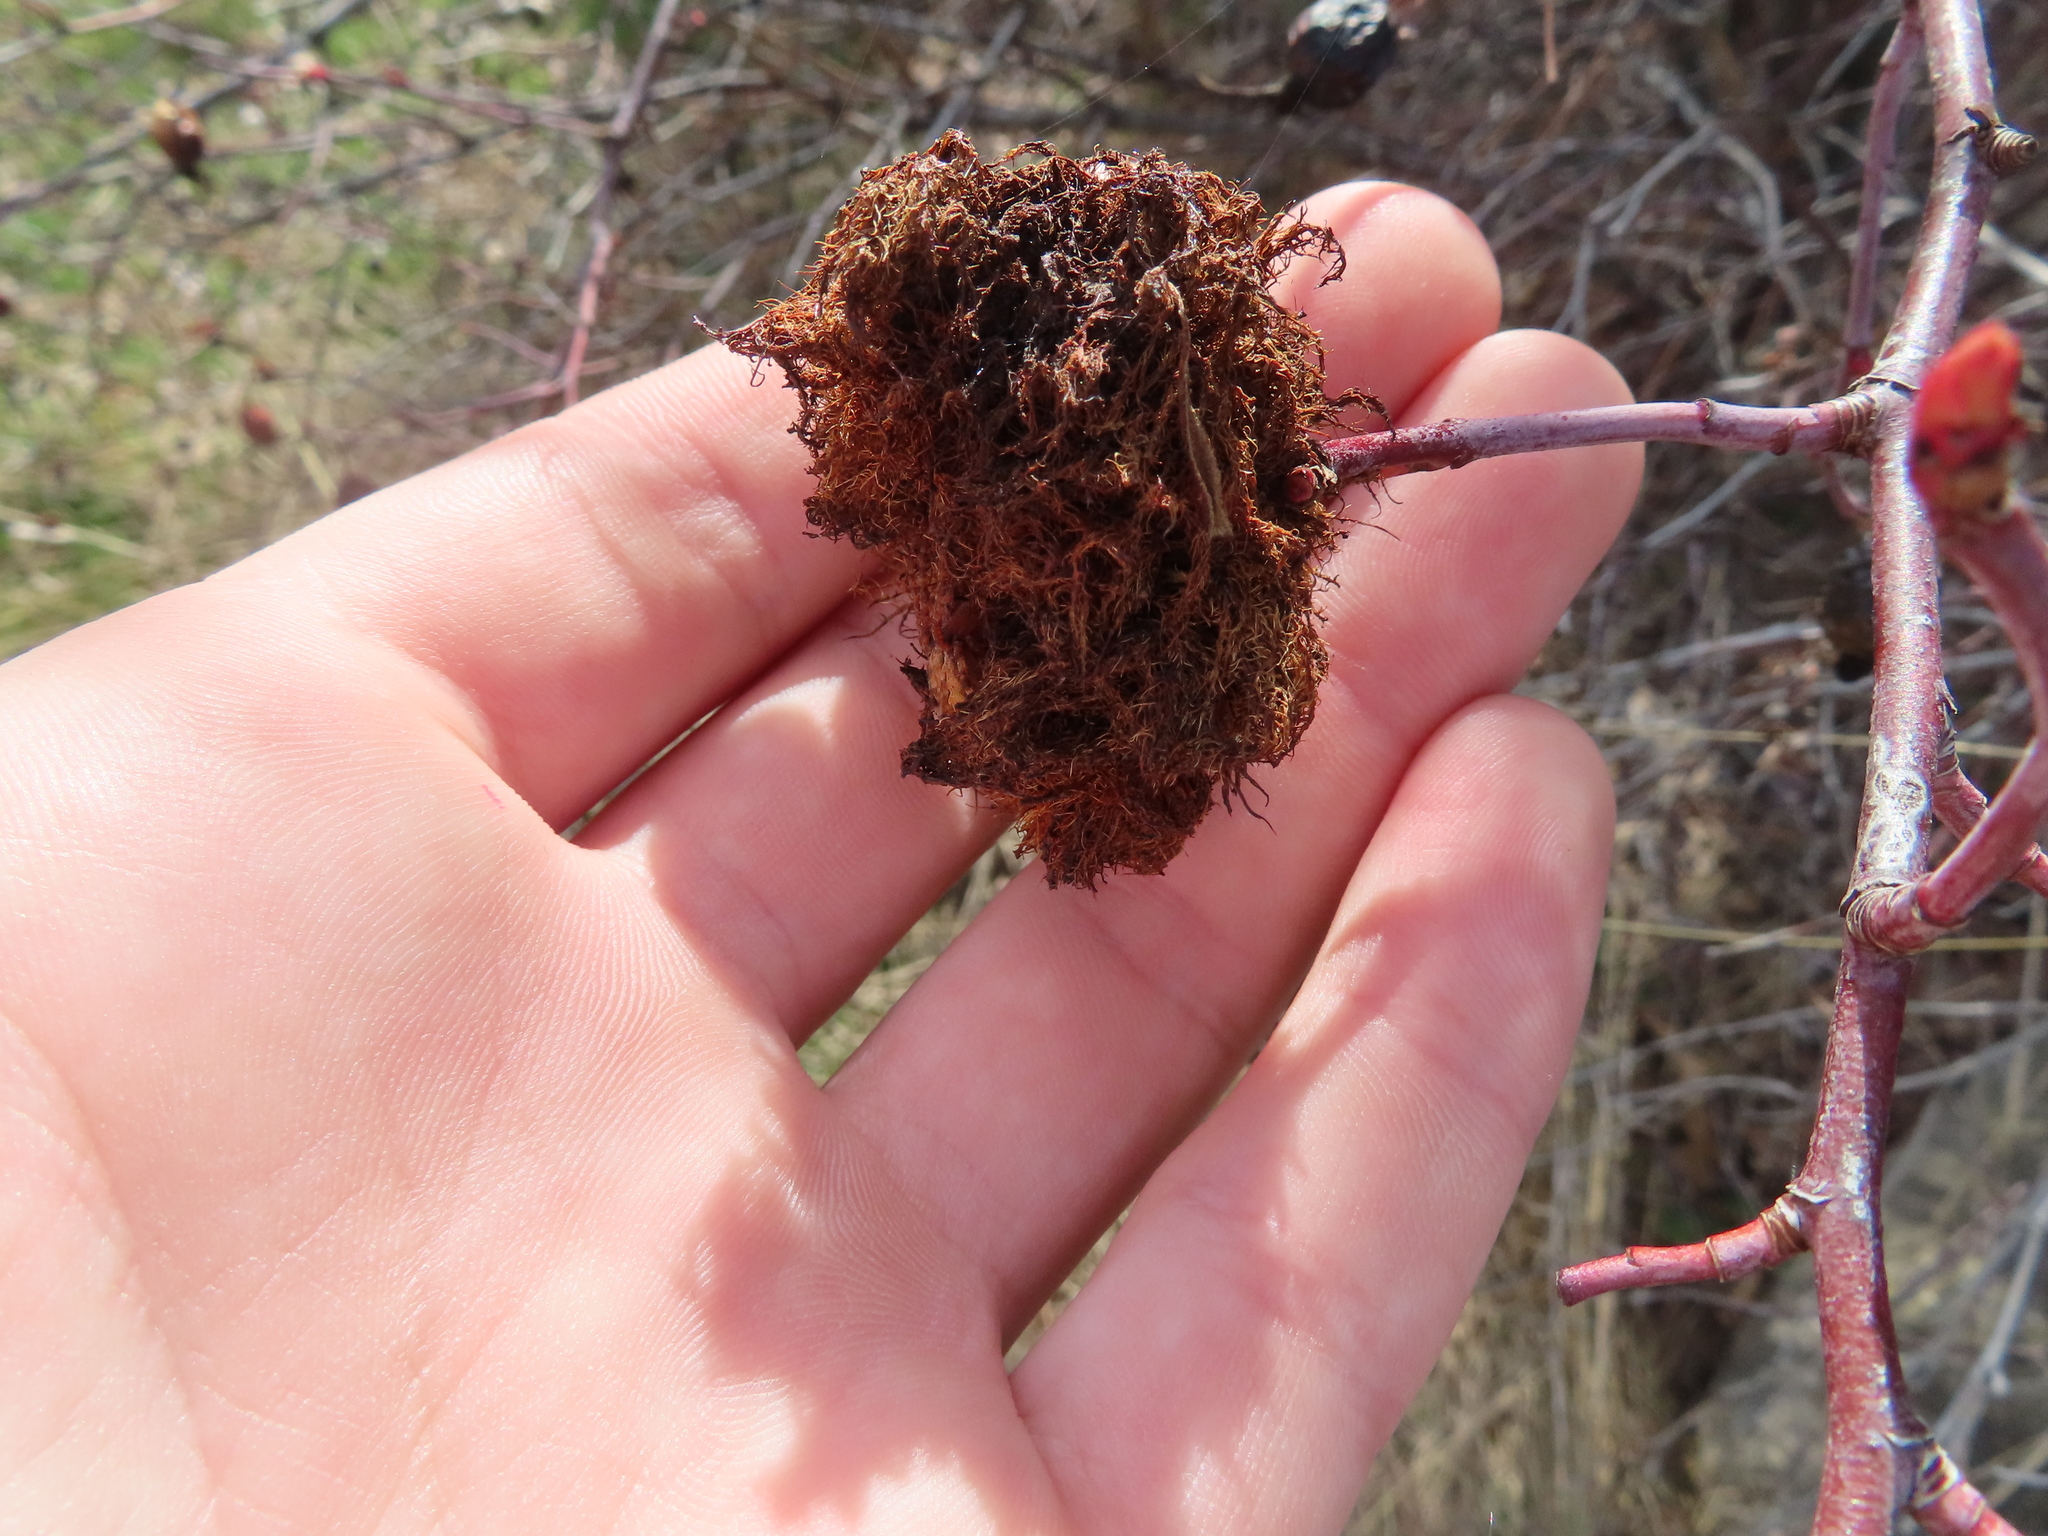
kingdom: Animalia
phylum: Arthropoda
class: Insecta
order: Hymenoptera
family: Cynipidae
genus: Diplolepis
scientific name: Diplolepis rosae
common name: Bedeguar gall
